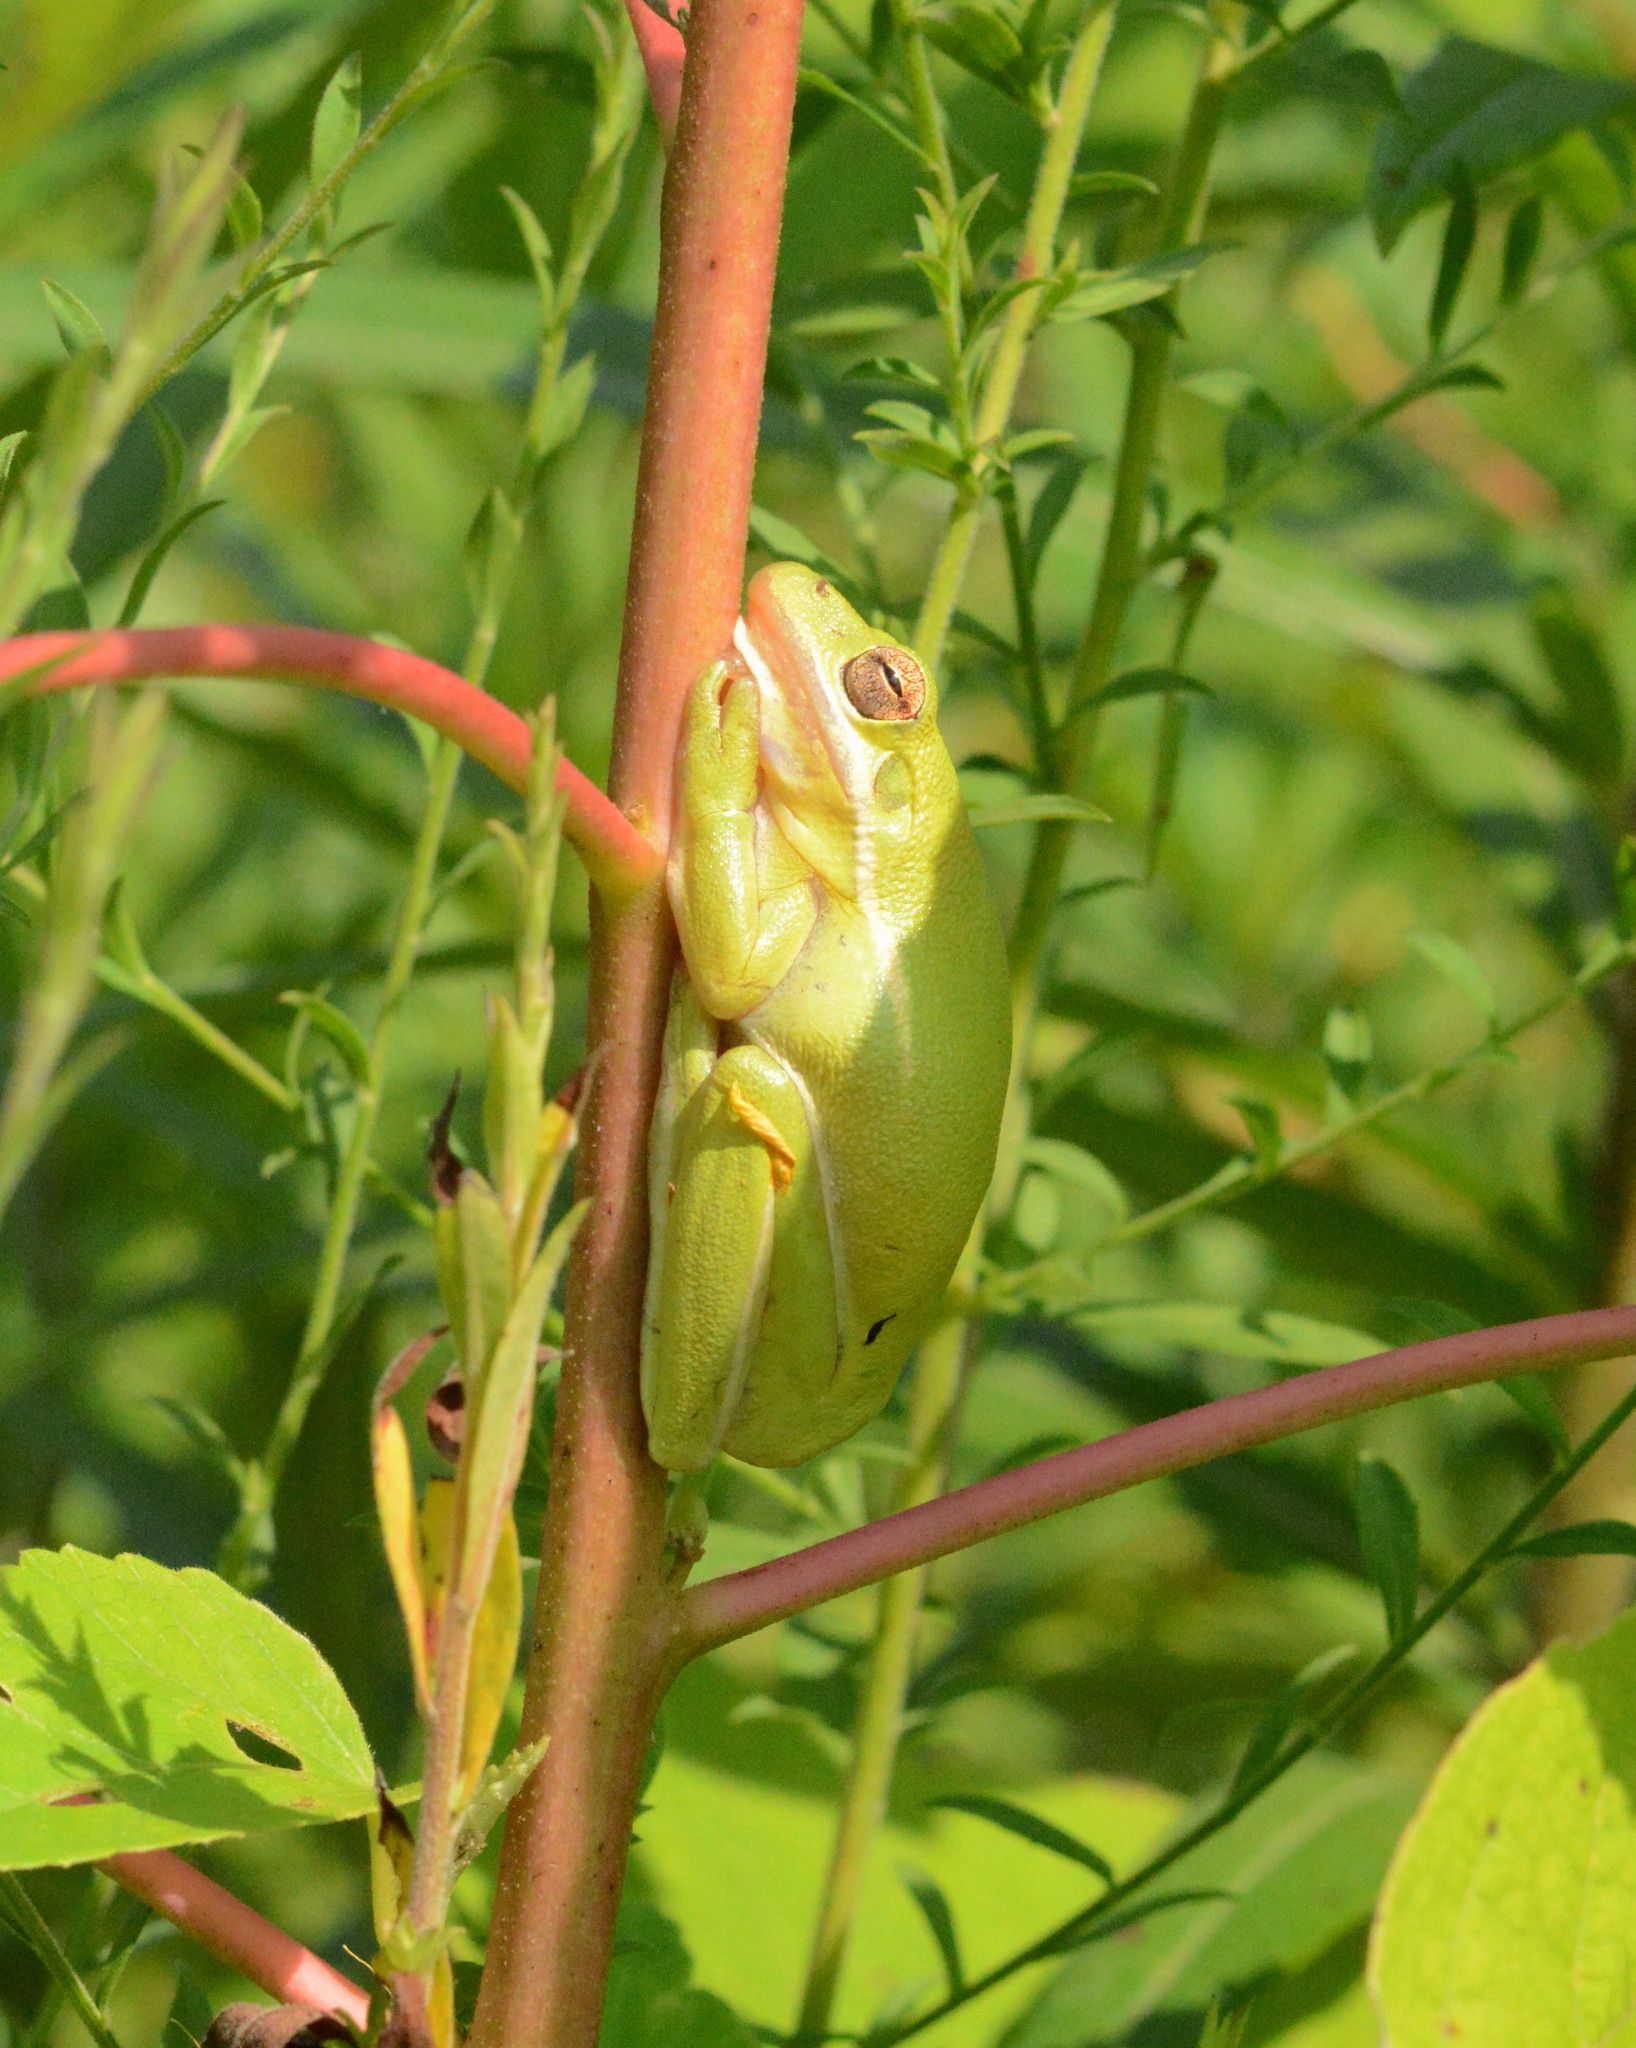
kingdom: Animalia
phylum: Chordata
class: Amphibia
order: Anura
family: Hylidae
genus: Dryophytes
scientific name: Dryophytes cinereus
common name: Green treefrog
